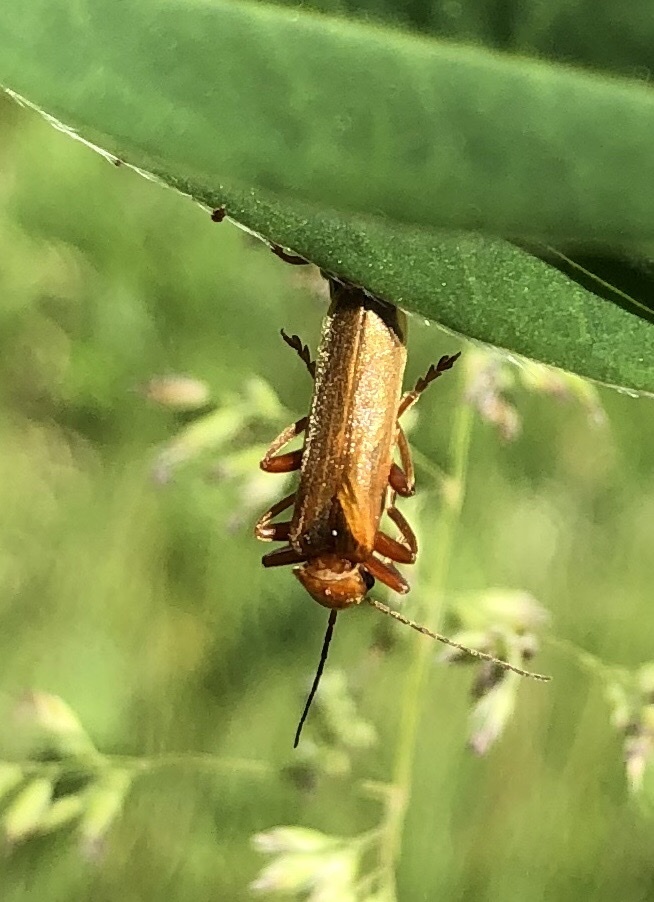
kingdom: Animalia
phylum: Arthropoda
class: Insecta
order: Coleoptera
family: Cantharidae
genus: Cantharis
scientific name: Cantharis rufa
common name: Red-spotted soldier beetle
